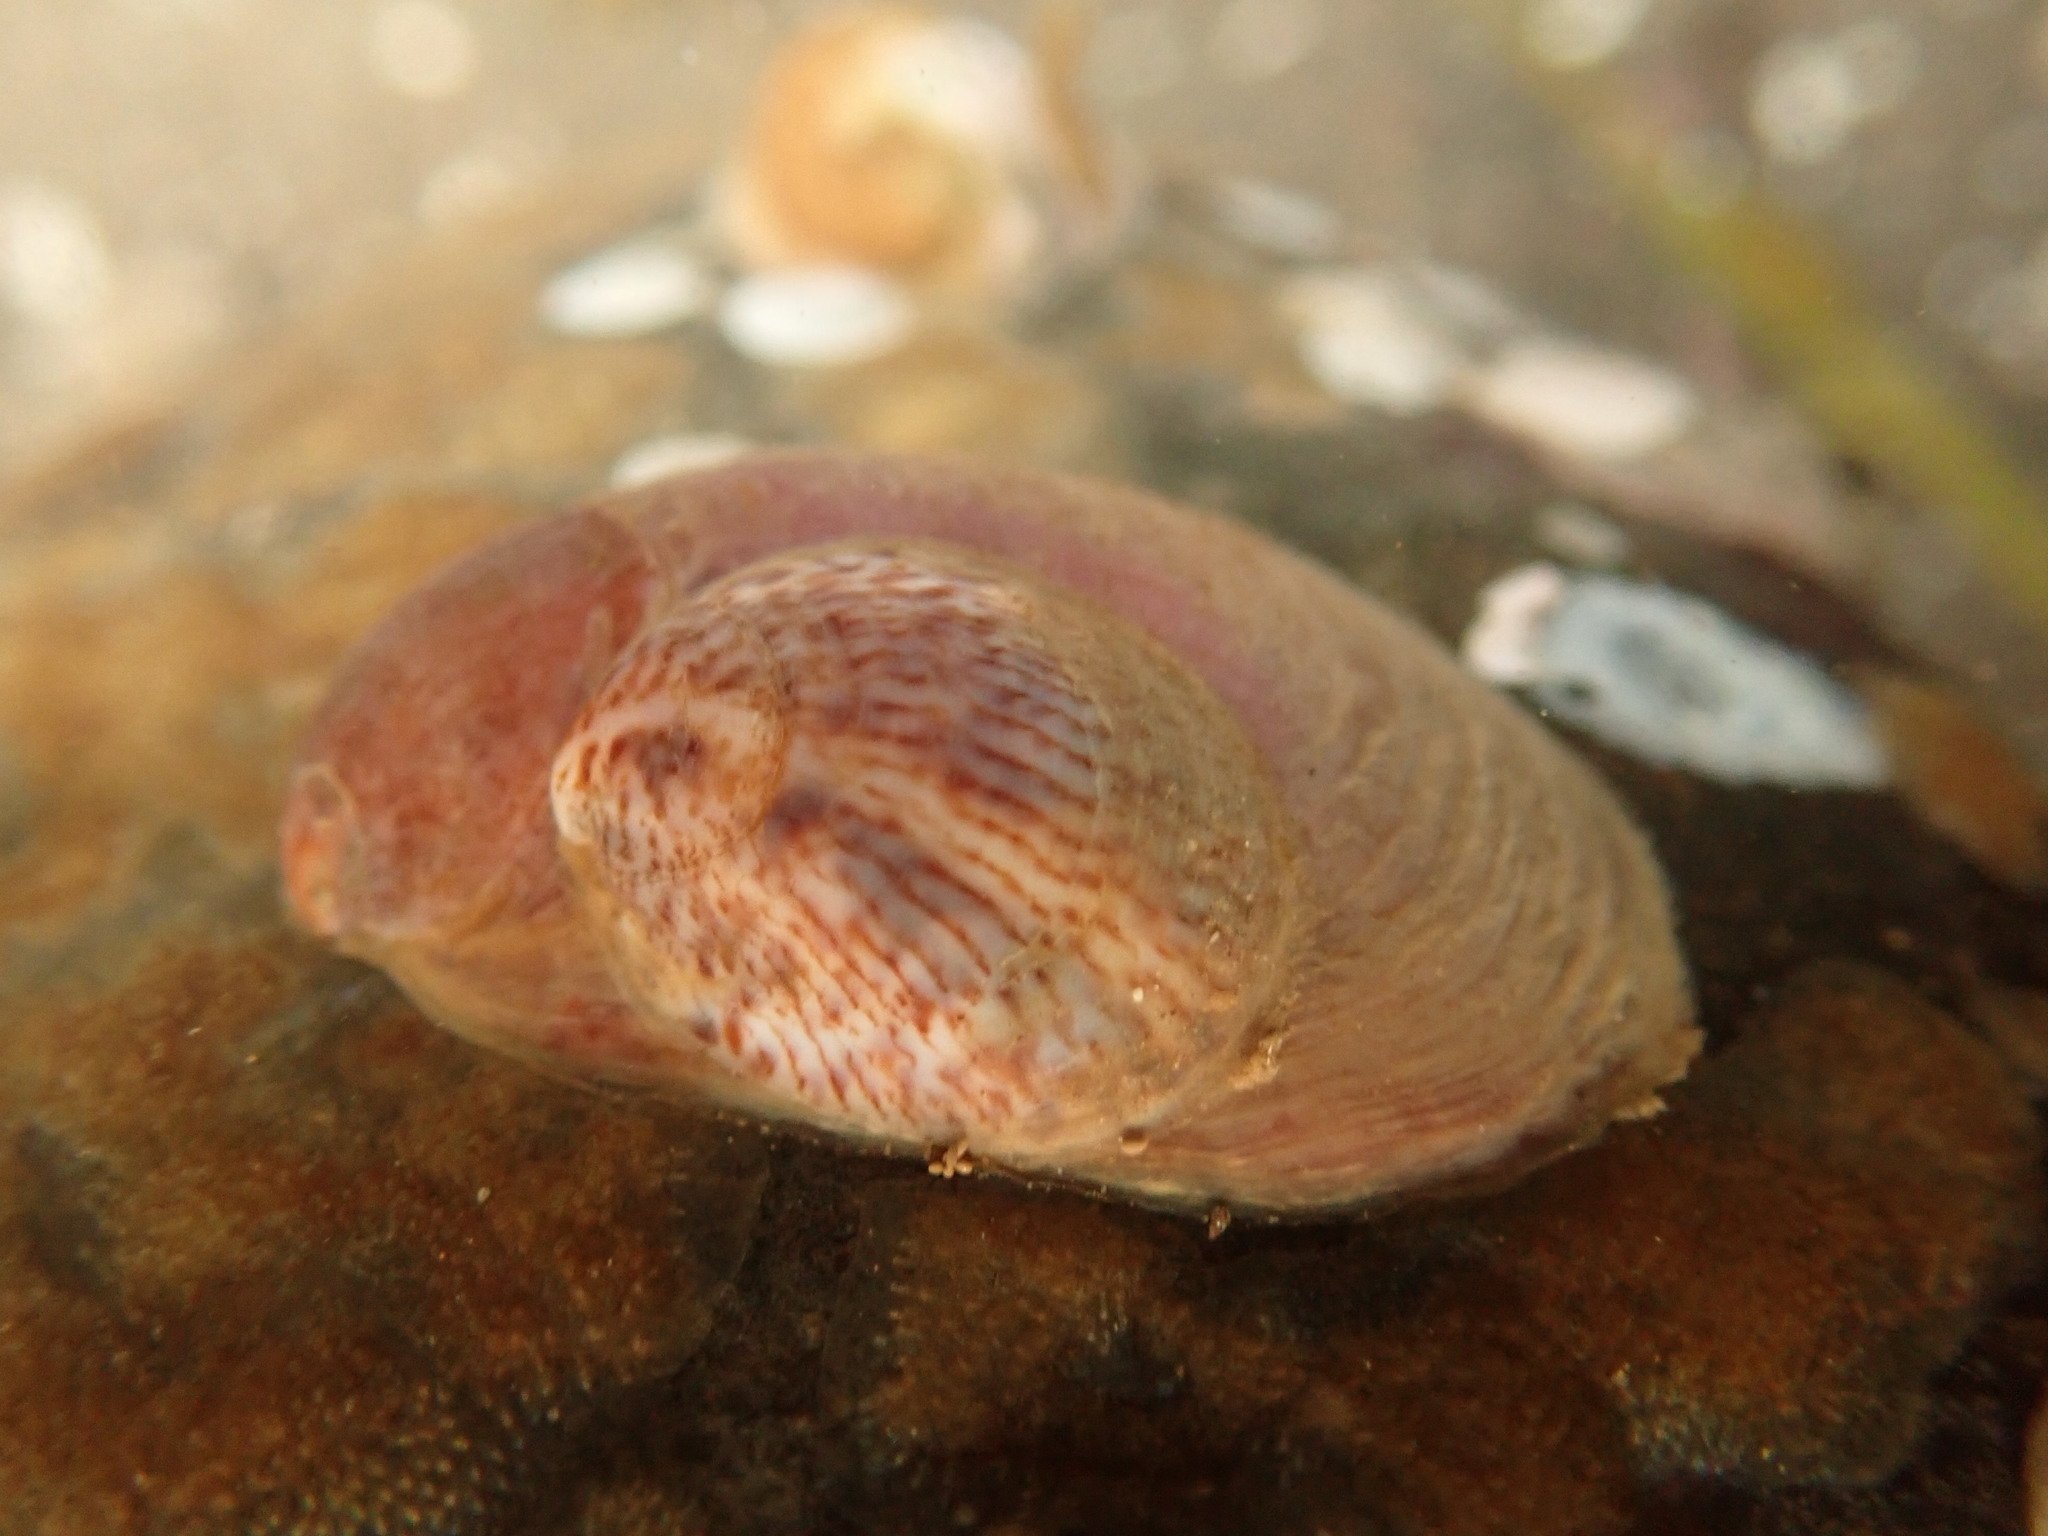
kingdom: Animalia
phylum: Mollusca
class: Gastropoda
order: Littorinimorpha
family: Calyptraeidae
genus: Crepidula
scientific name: Crepidula fornicata
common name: Slipper limpet
